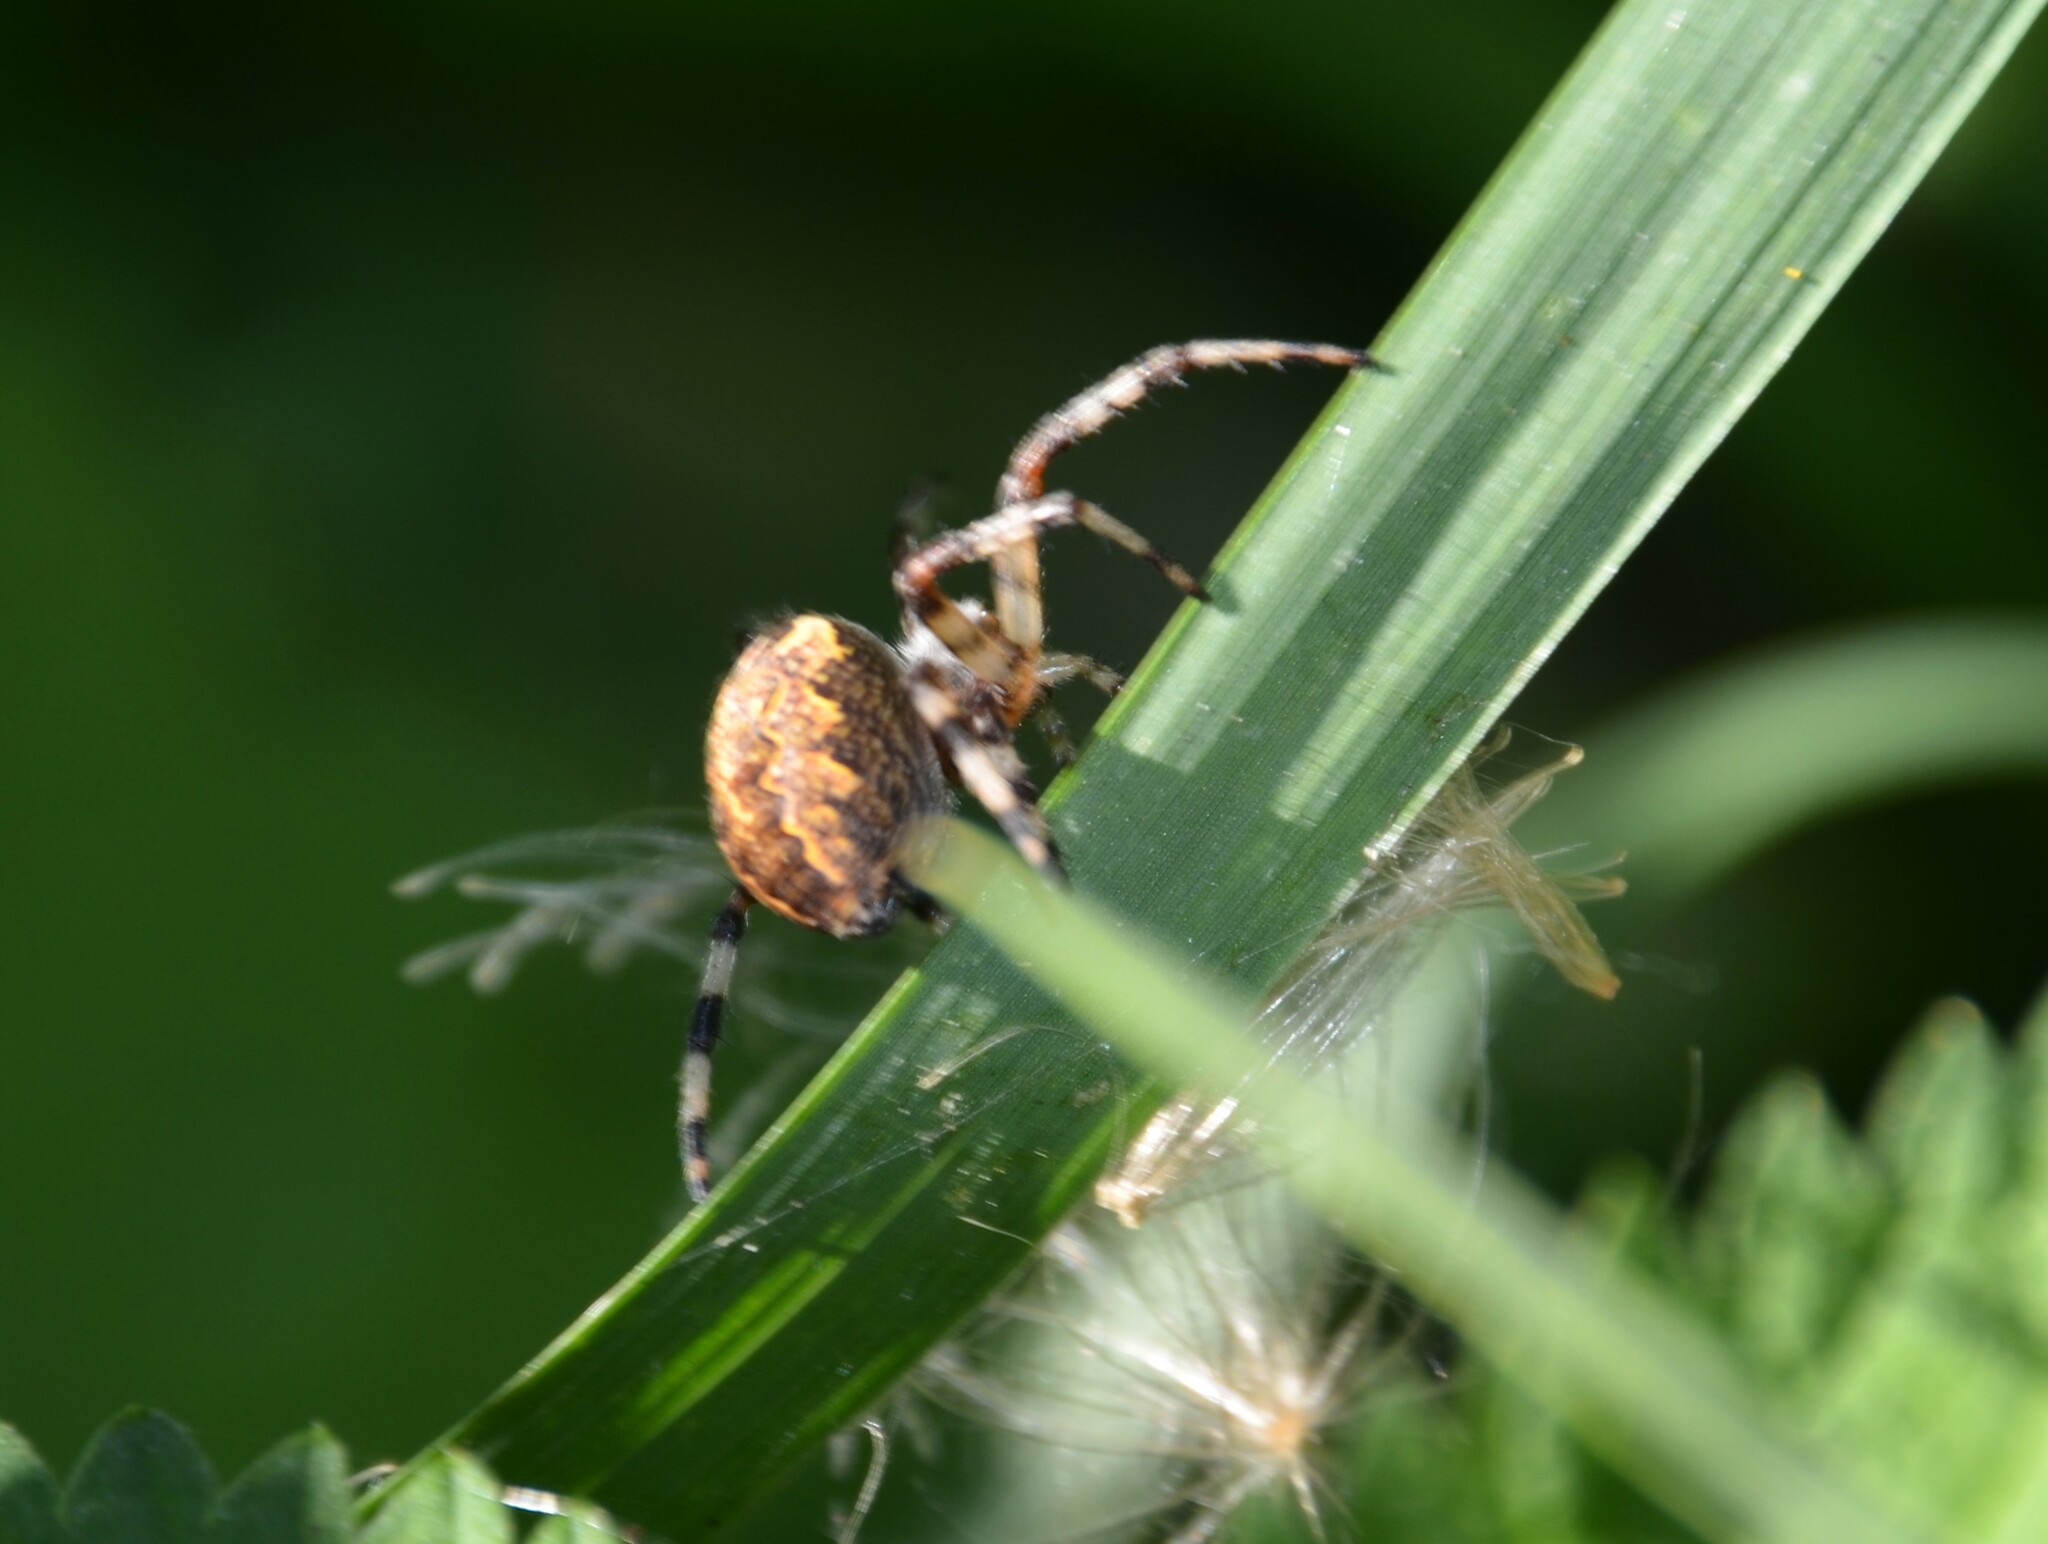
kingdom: Animalia
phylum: Arthropoda
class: Arachnida
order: Araneae
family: Araneidae
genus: Araneus
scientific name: Araneus marmoreus
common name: Marbled orbweaver
